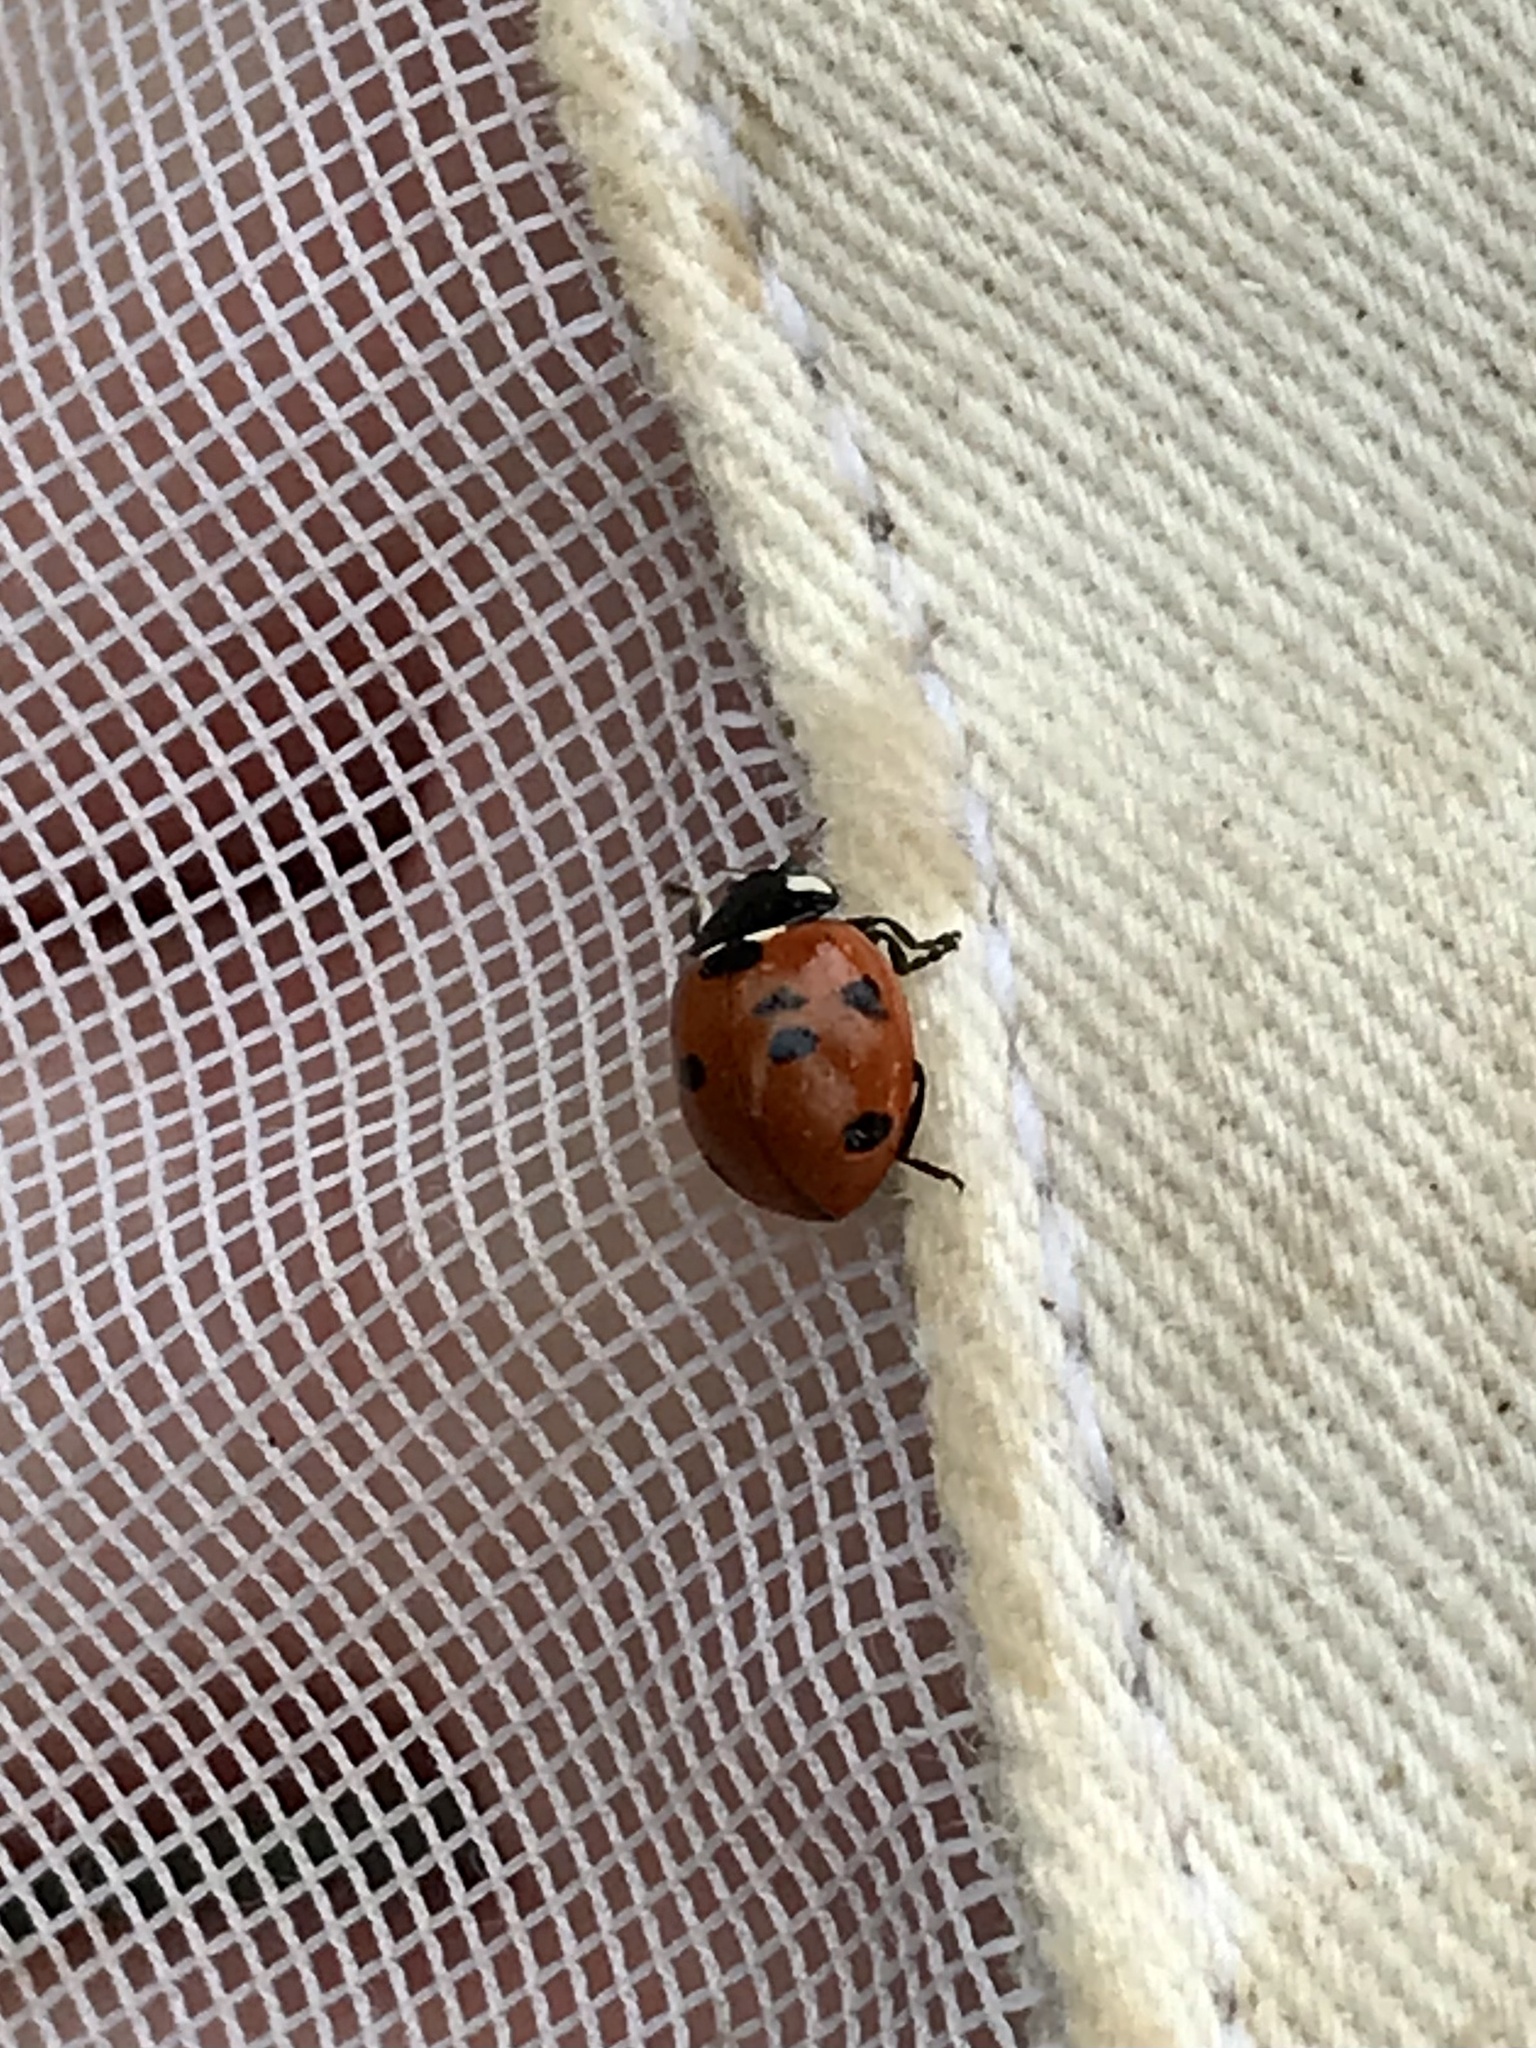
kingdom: Animalia
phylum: Arthropoda
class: Insecta
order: Coleoptera
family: Coccinellidae
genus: Coccinella
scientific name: Coccinella septempunctata
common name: Sevenspotted lady beetle
